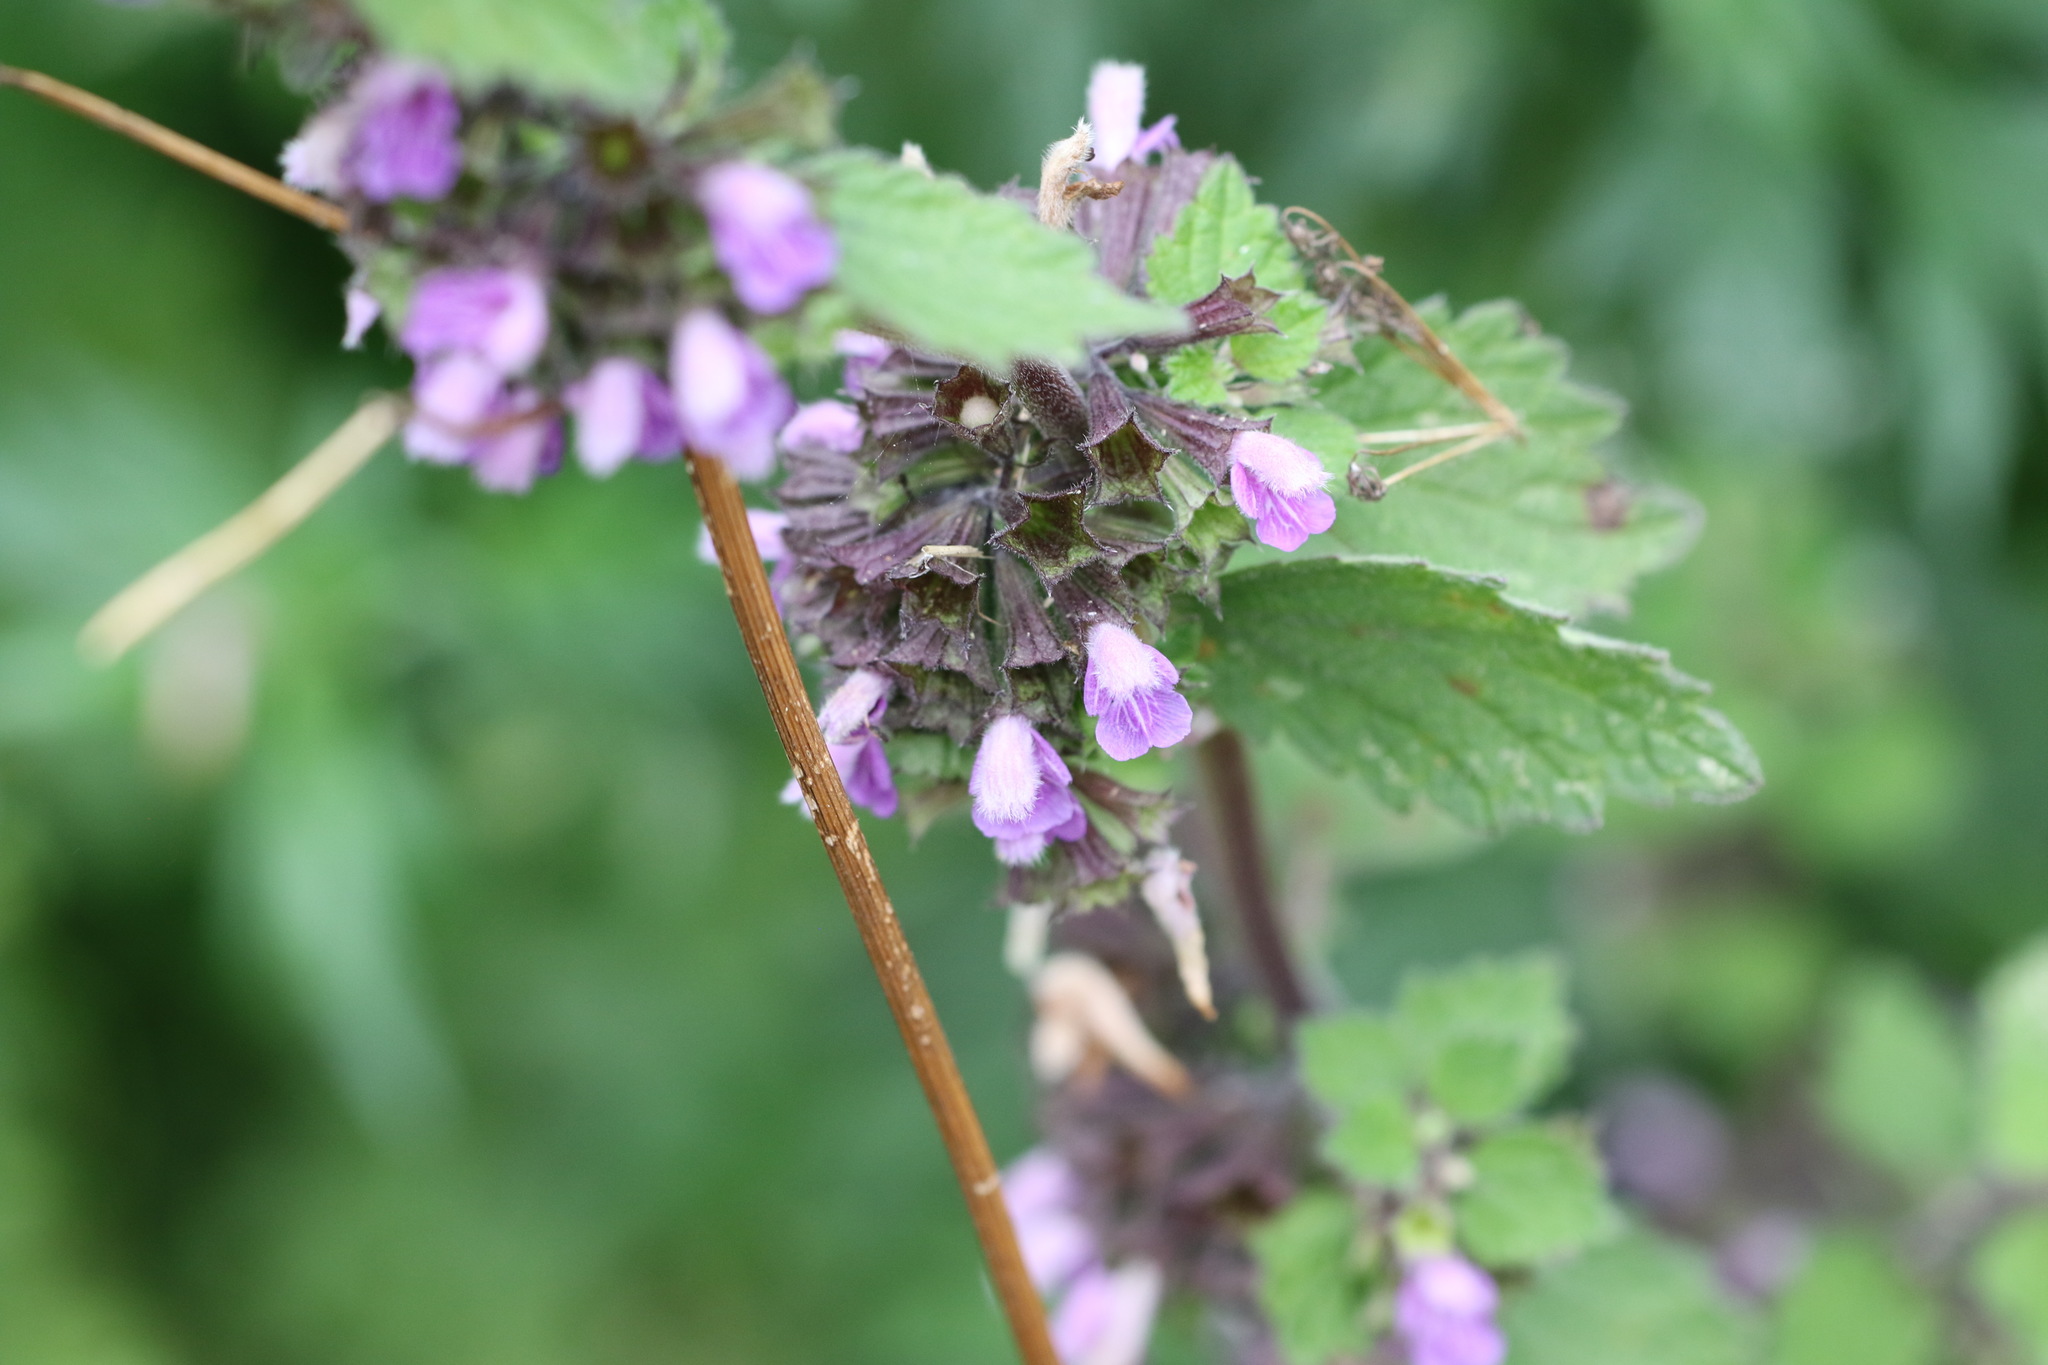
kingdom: Plantae
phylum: Tracheophyta
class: Magnoliopsida
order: Lamiales
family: Lamiaceae
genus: Ballota
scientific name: Ballota nigra
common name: Black horehound
